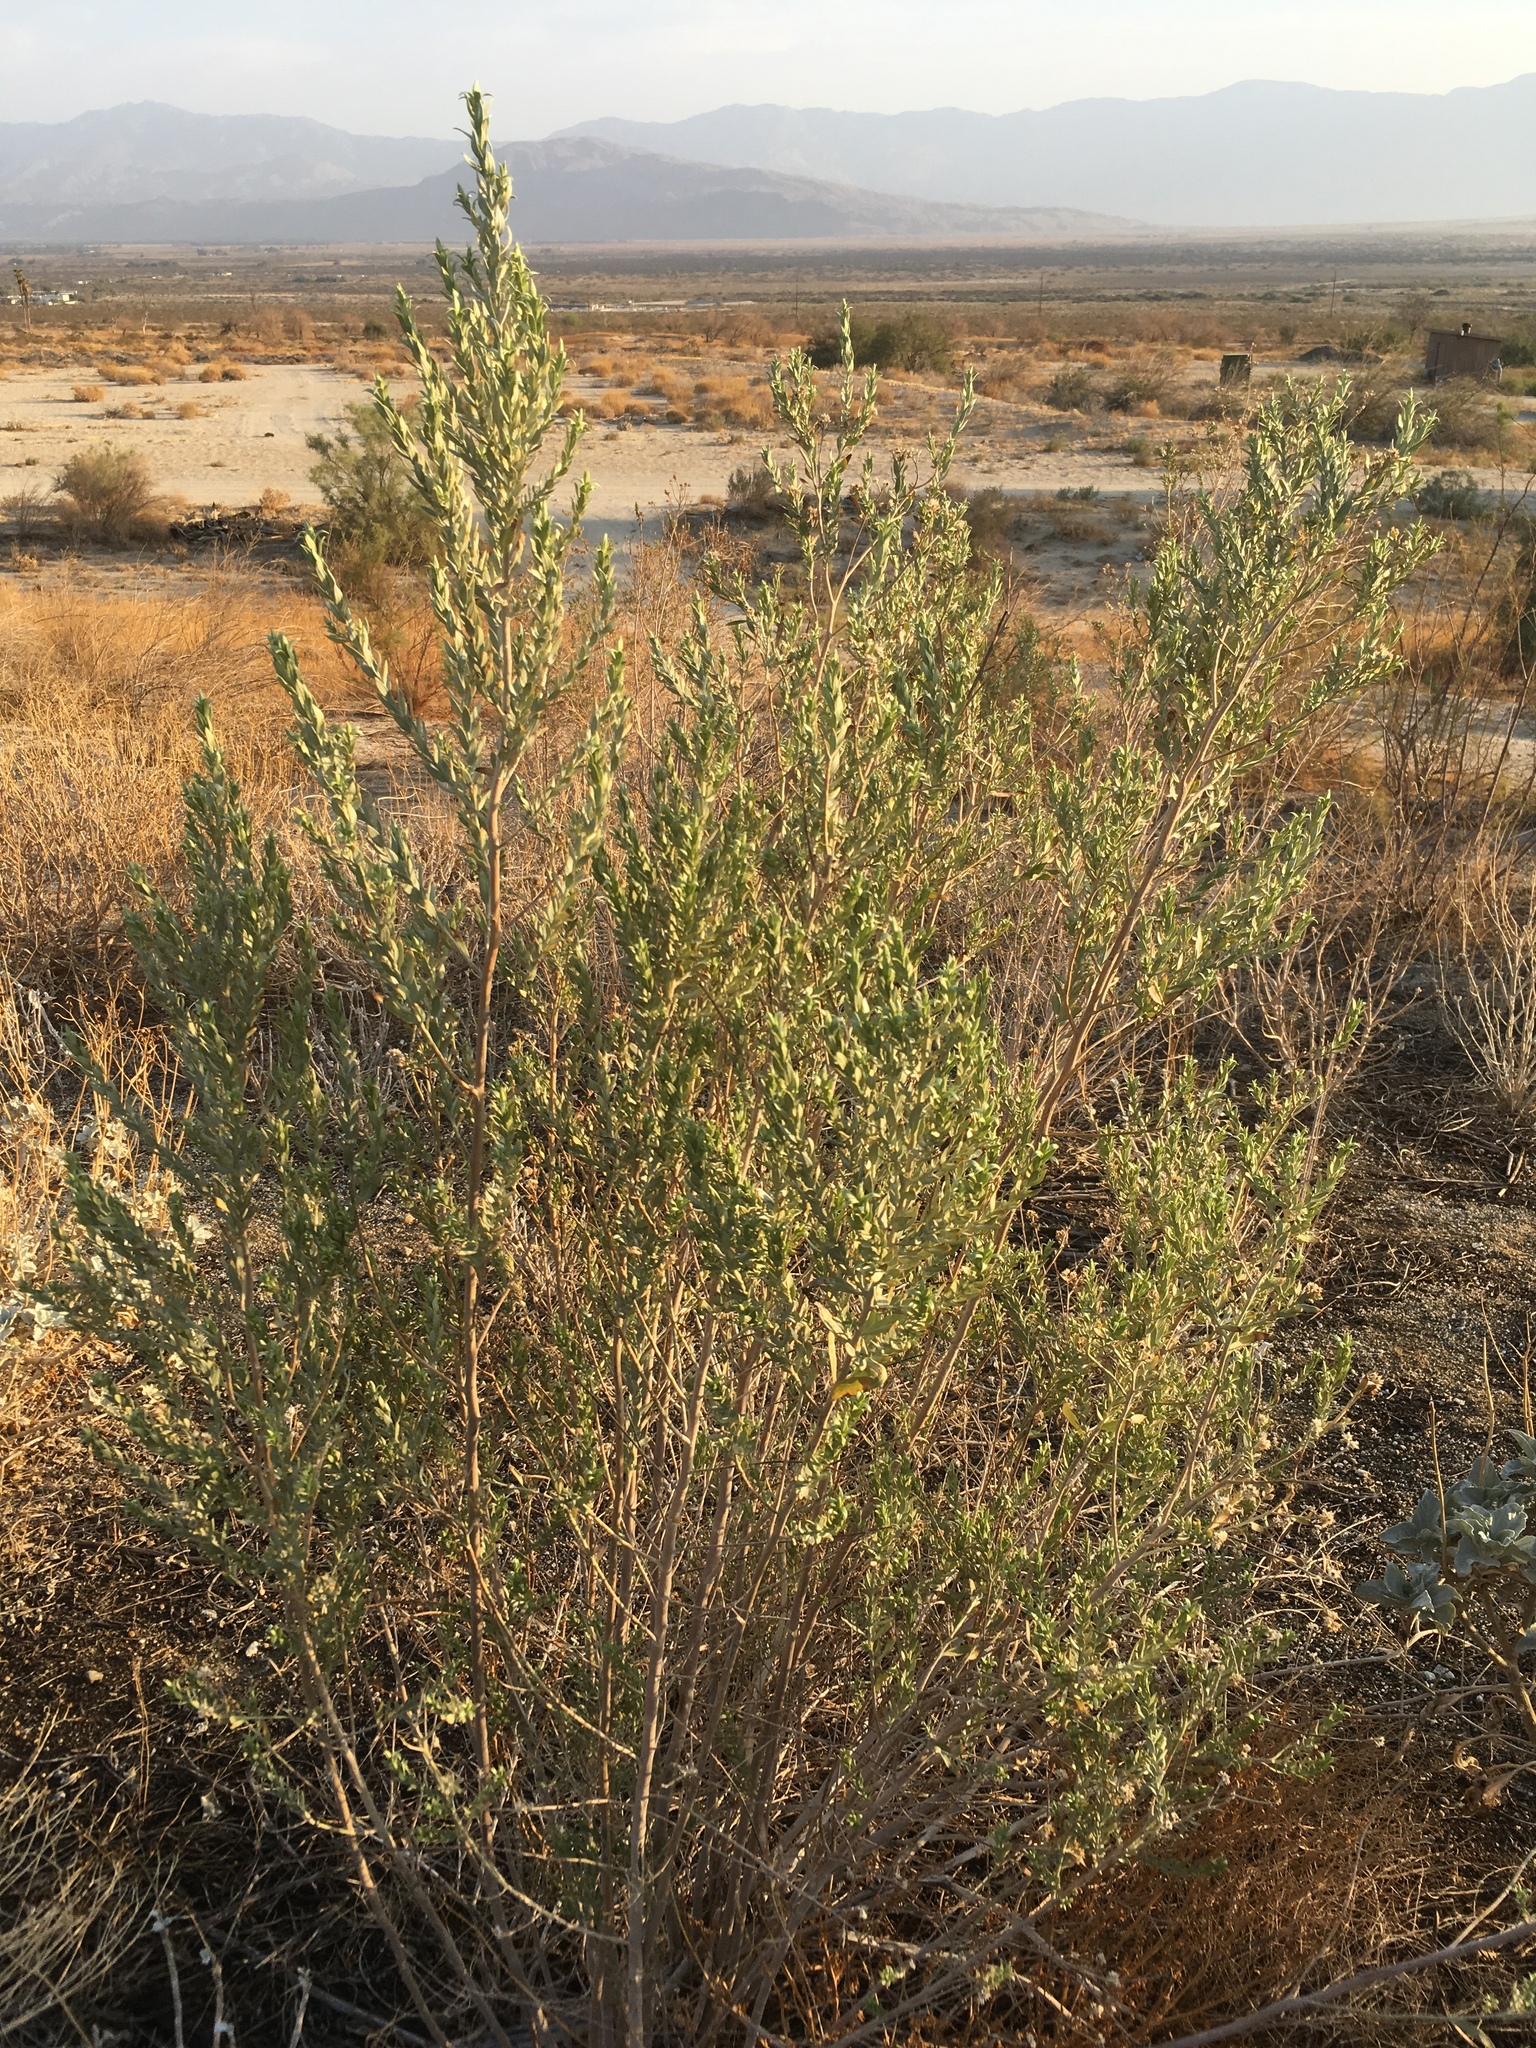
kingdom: Plantae
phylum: Tracheophyta
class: Magnoliopsida
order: Asterales
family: Asteraceae
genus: Pluchea
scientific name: Pluchea sericea
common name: Arrow-weed
